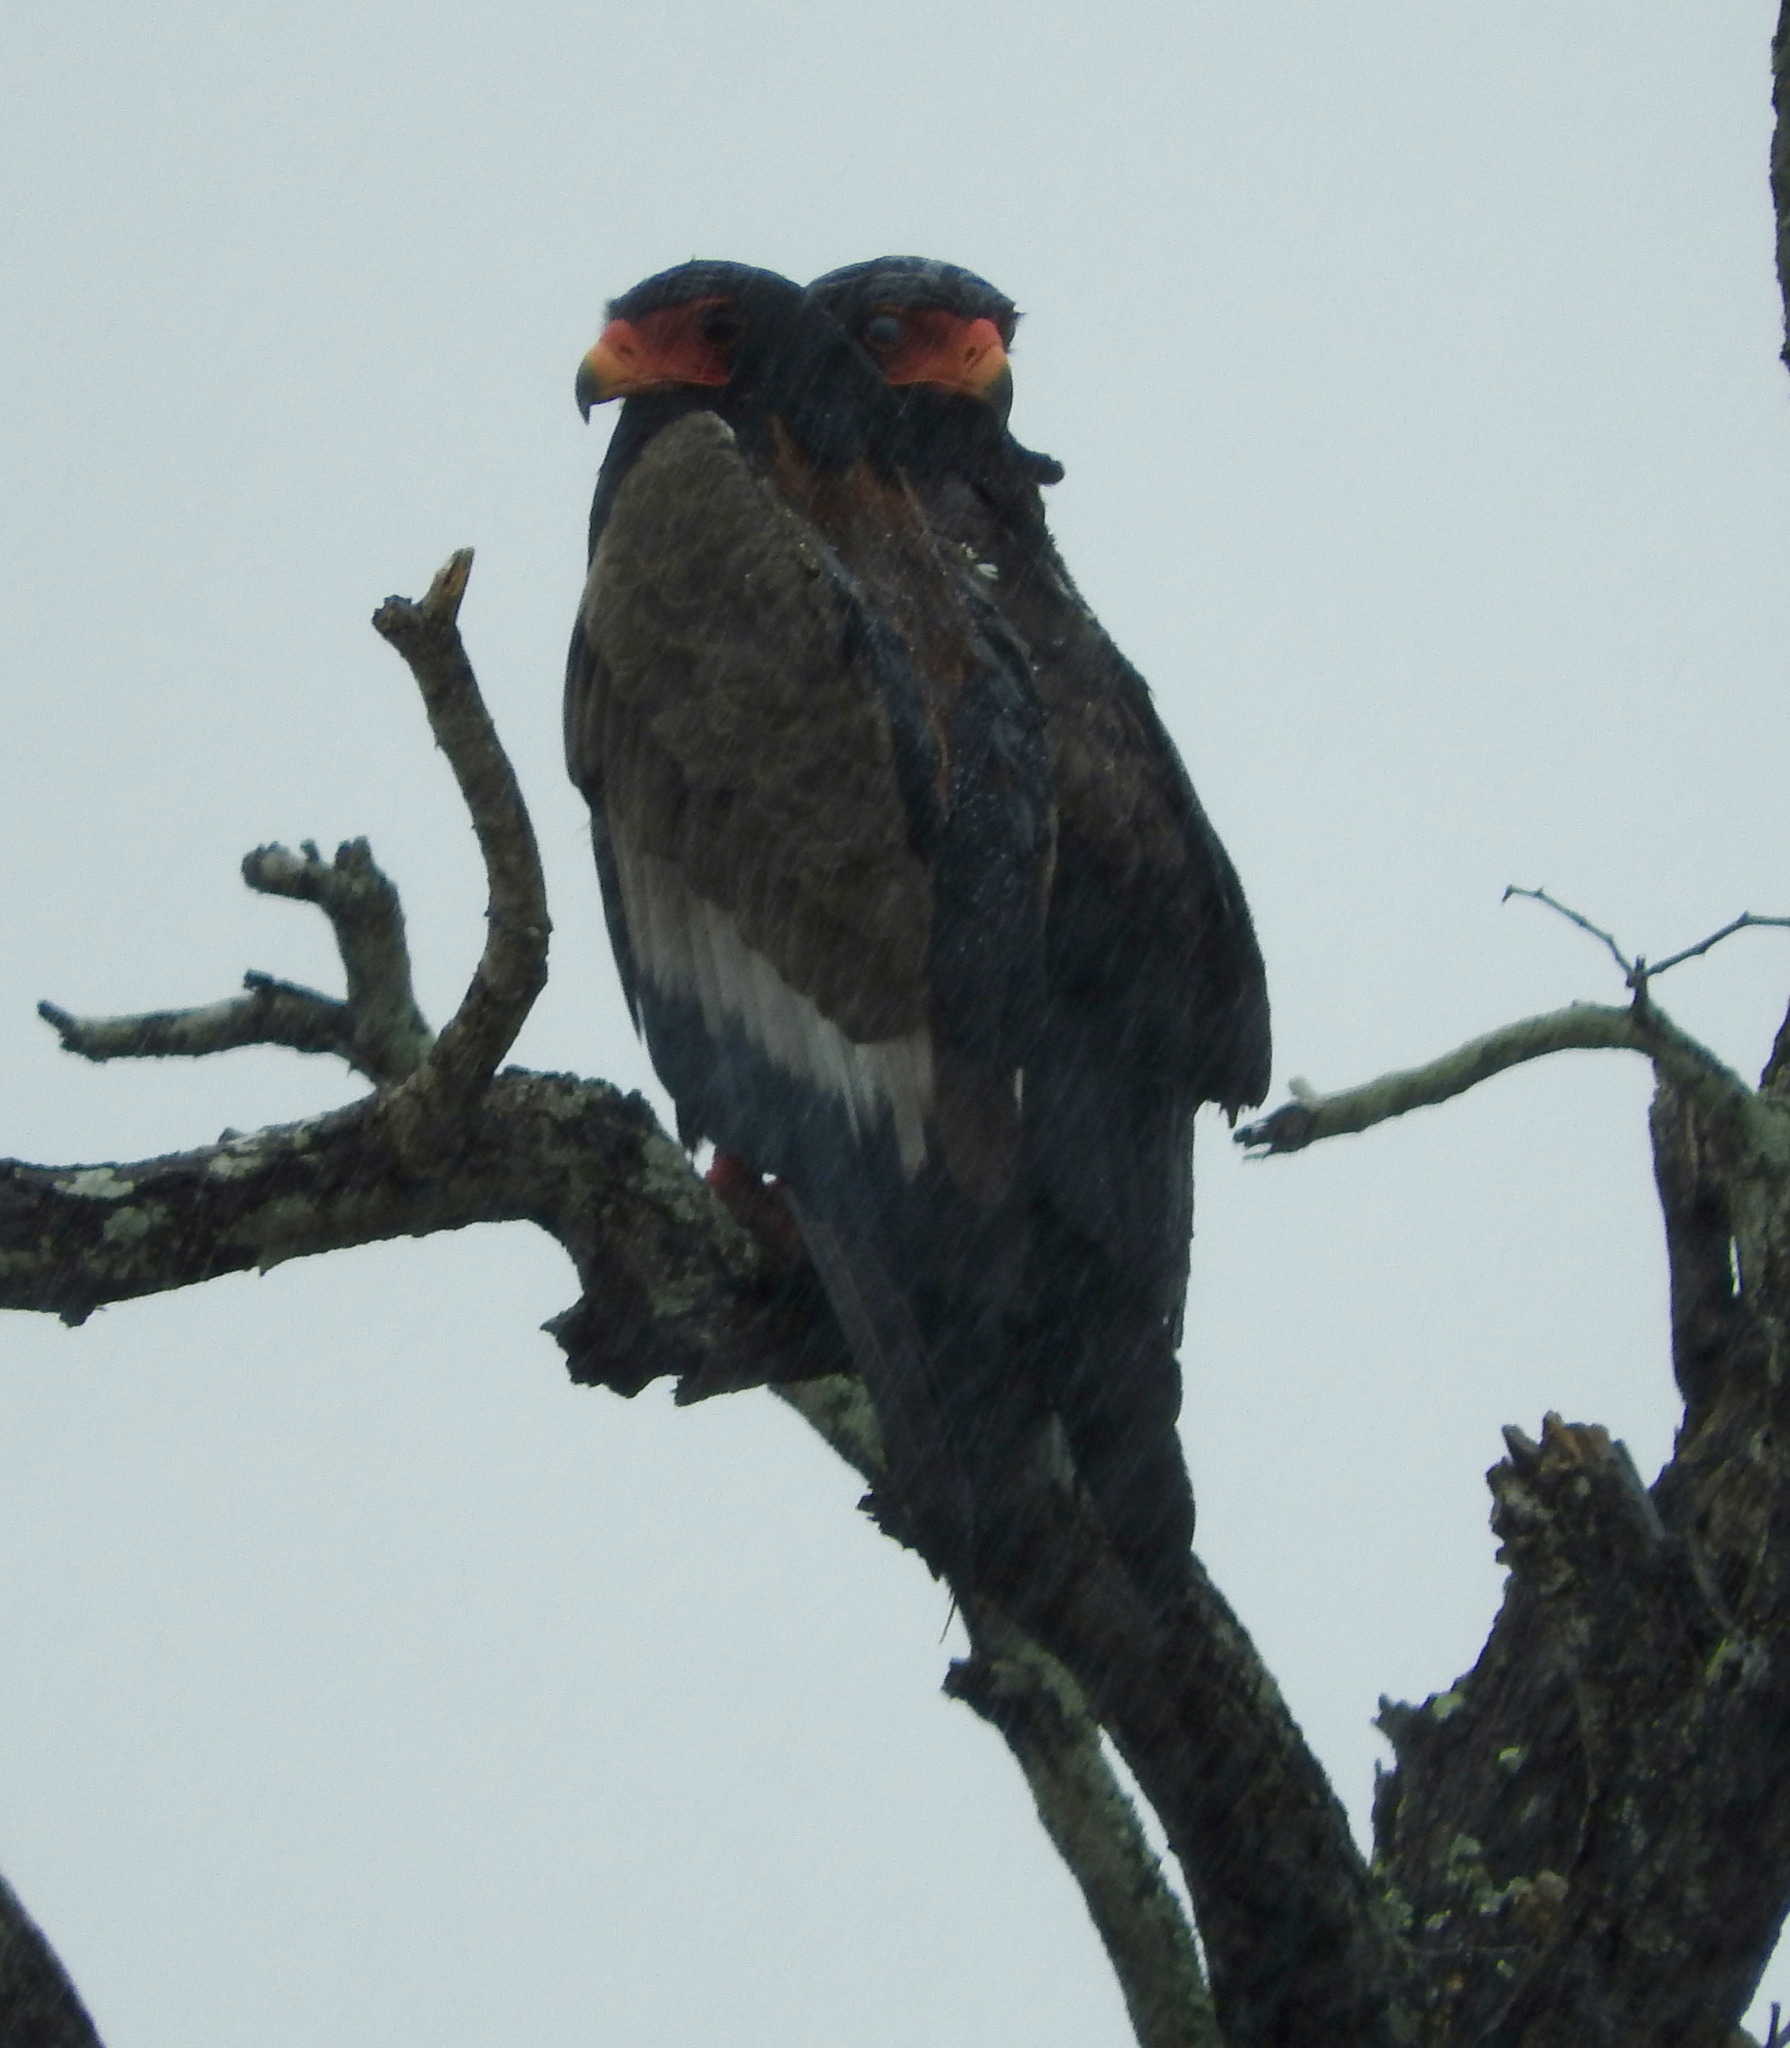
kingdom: Animalia
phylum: Chordata
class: Aves
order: Accipitriformes
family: Accipitridae
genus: Terathopius
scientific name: Terathopius ecaudatus
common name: Bateleur
